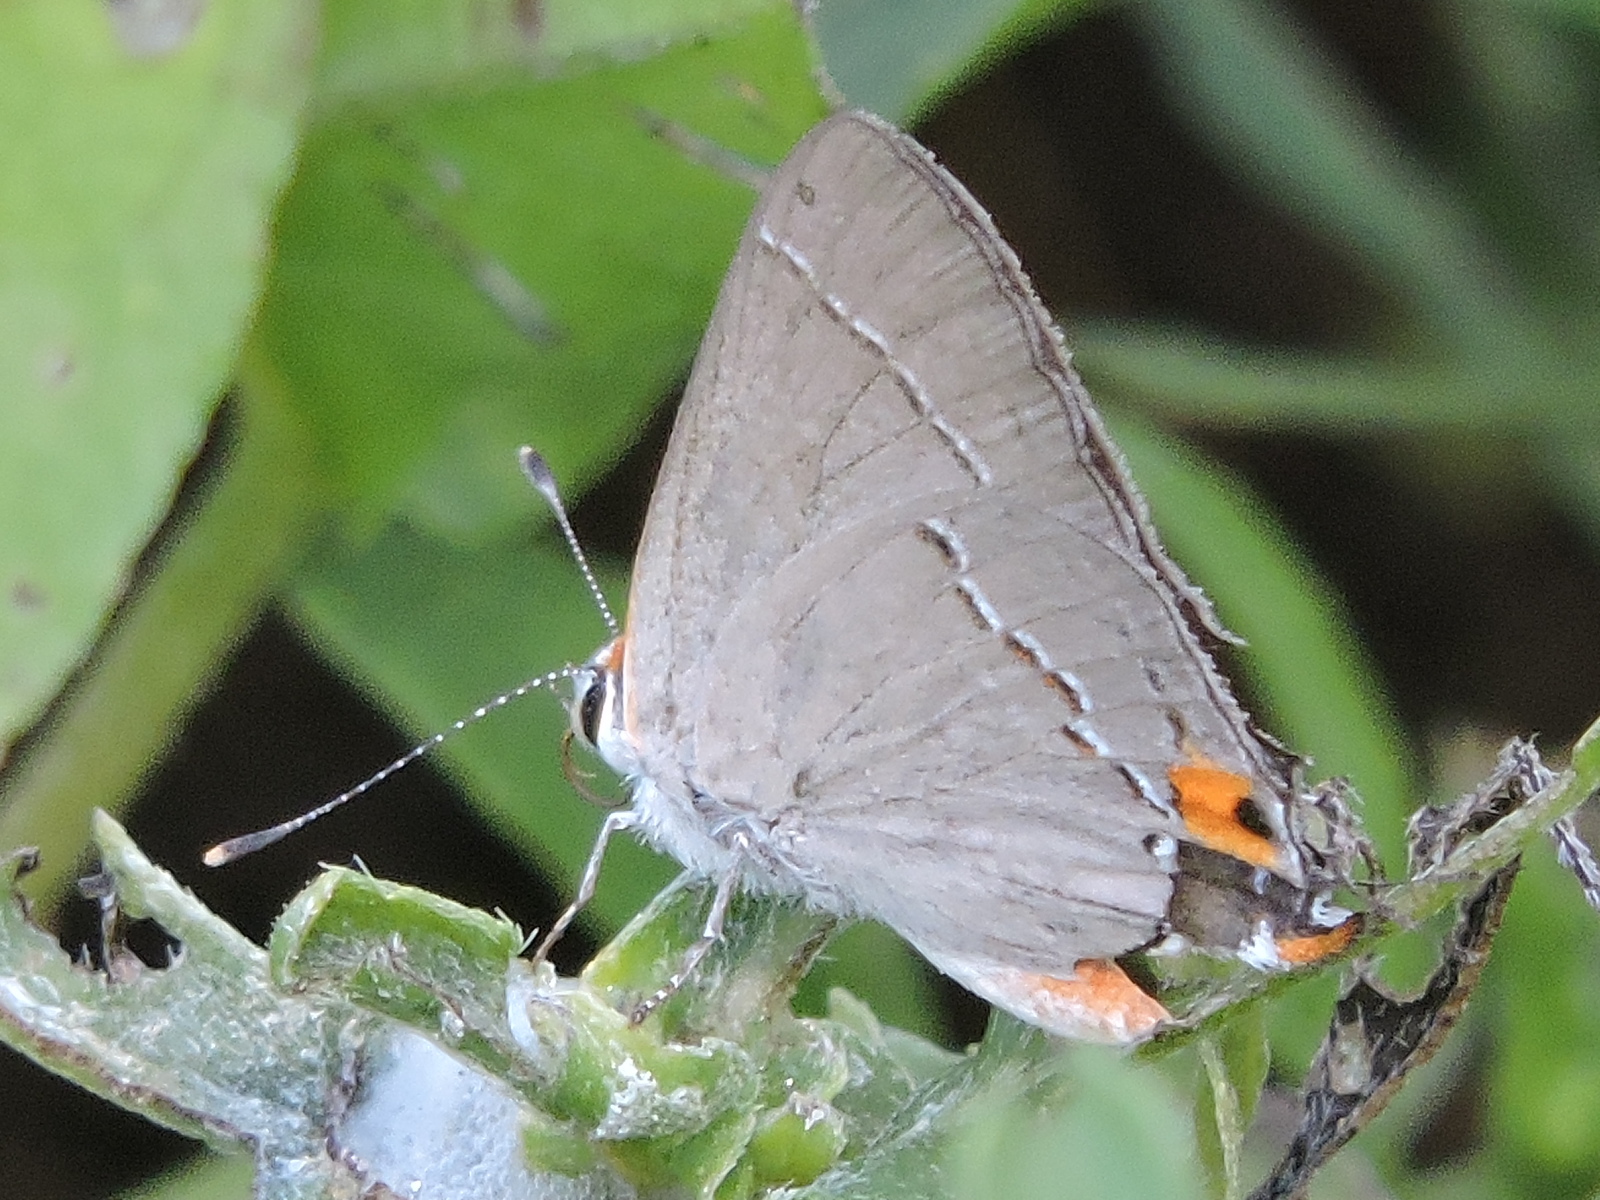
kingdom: Animalia
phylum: Arthropoda
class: Insecta
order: Lepidoptera
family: Lycaenidae
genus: Strymon
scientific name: Strymon melinus
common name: Gray hairstreak
